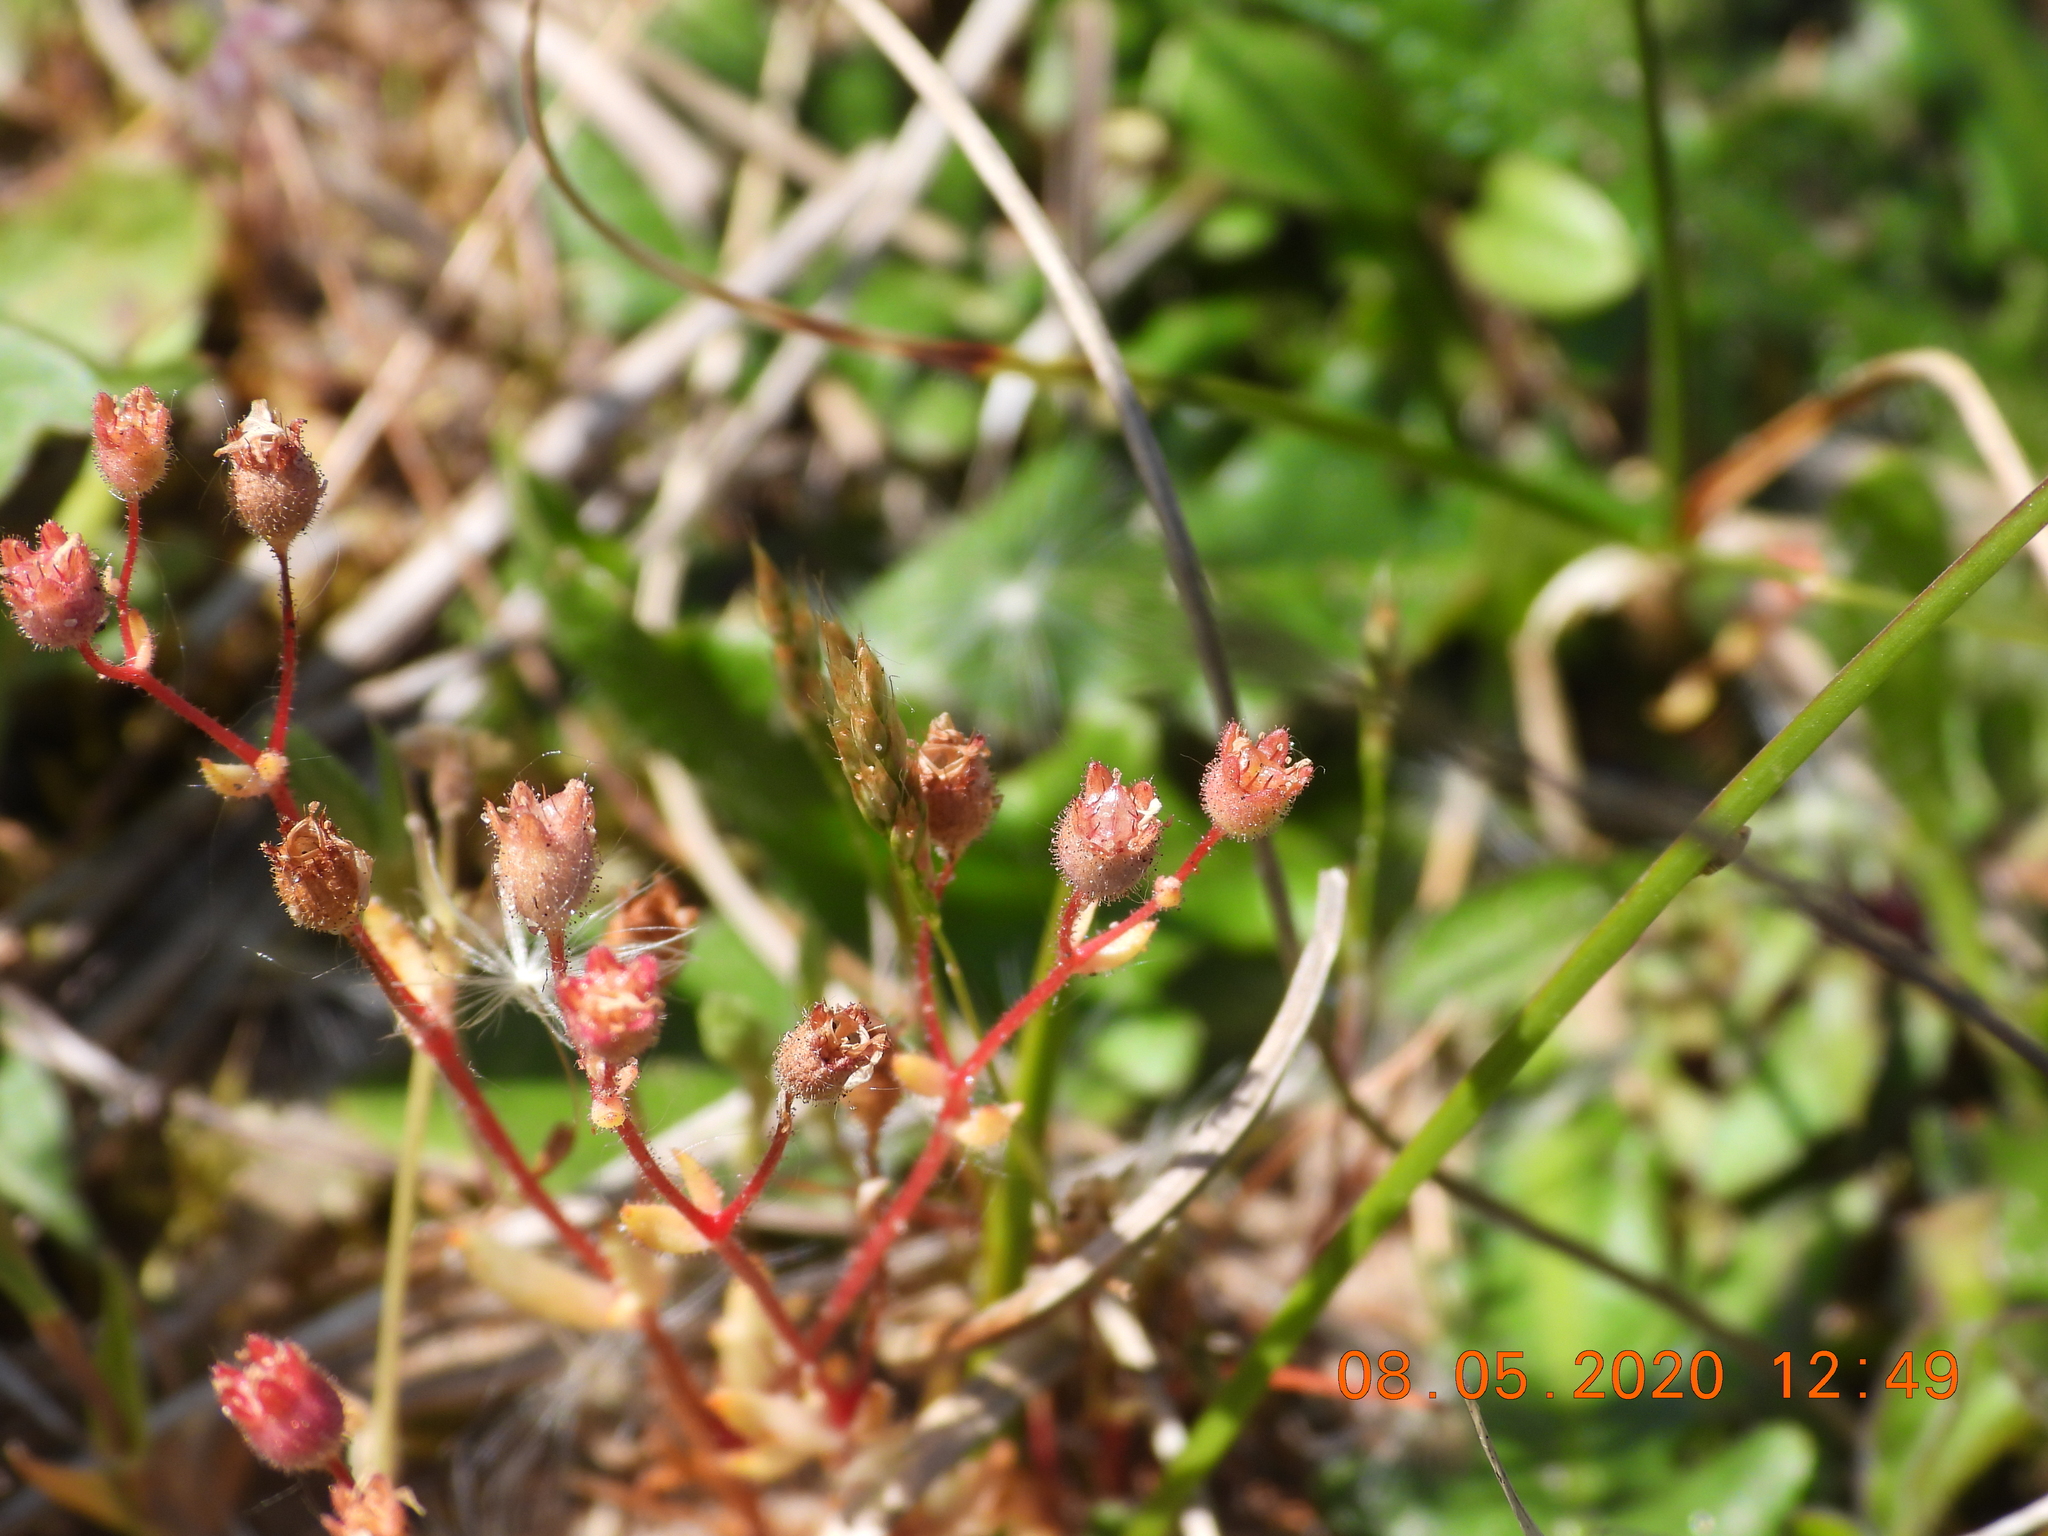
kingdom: Plantae
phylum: Tracheophyta
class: Magnoliopsida
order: Saxifragales
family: Saxifragaceae
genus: Saxifraga
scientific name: Saxifraga tridactylites
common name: Rue-leaved saxifrage
